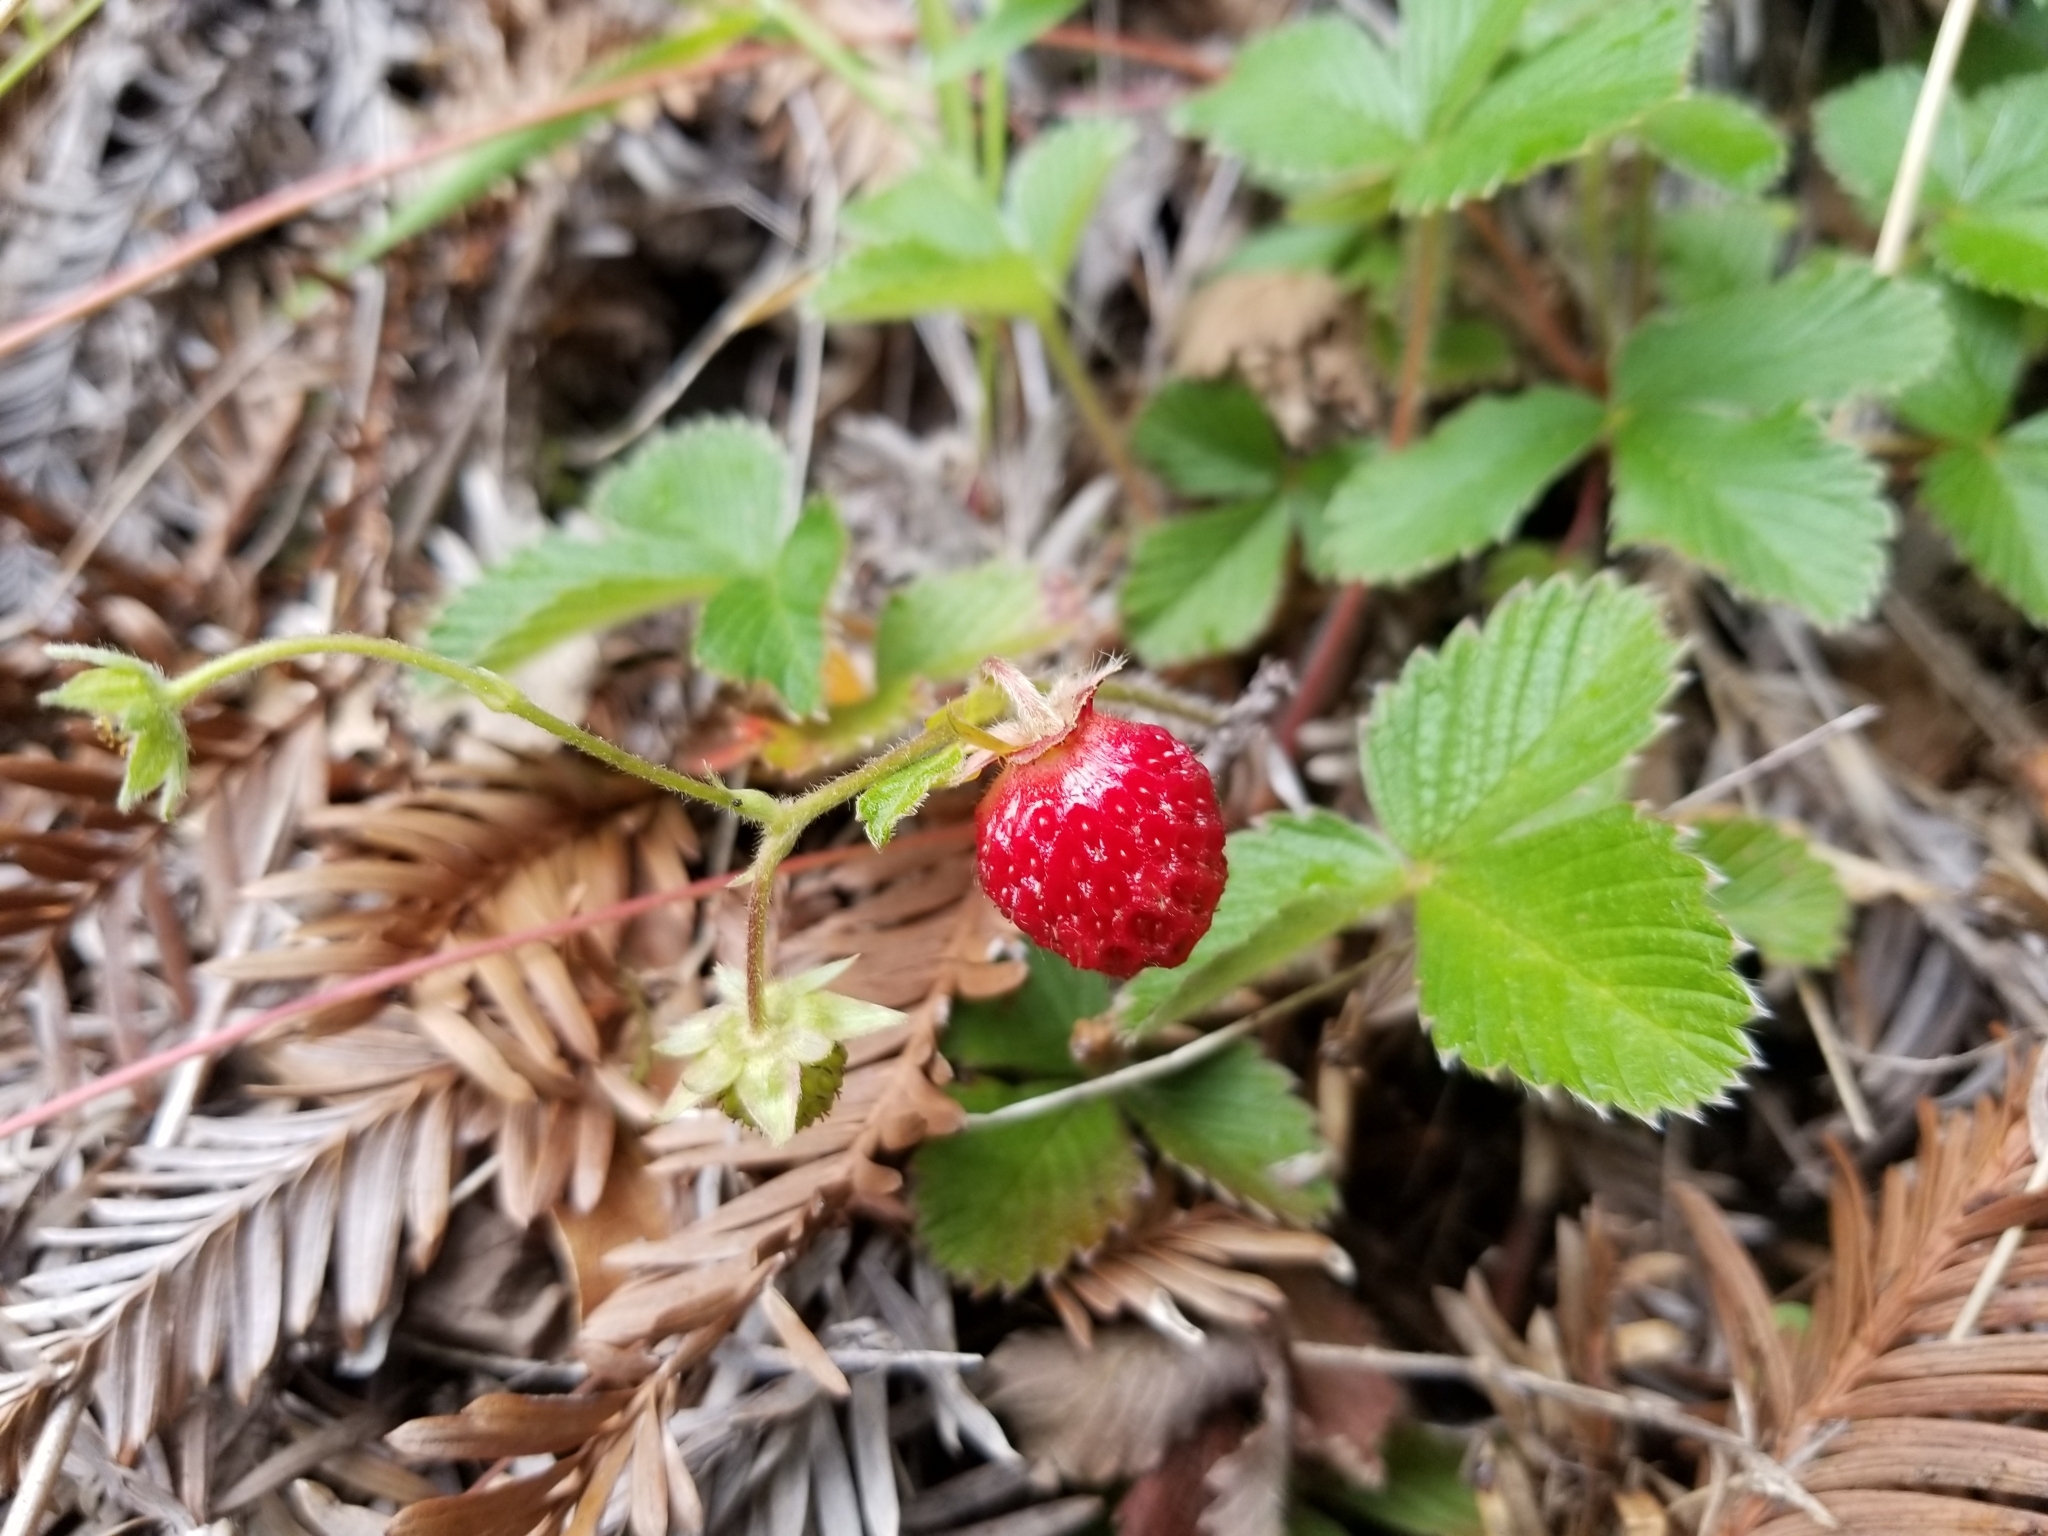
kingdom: Plantae
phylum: Tracheophyta
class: Magnoliopsida
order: Rosales
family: Rosaceae
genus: Fragaria
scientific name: Fragaria vesca
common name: Wild strawberry
